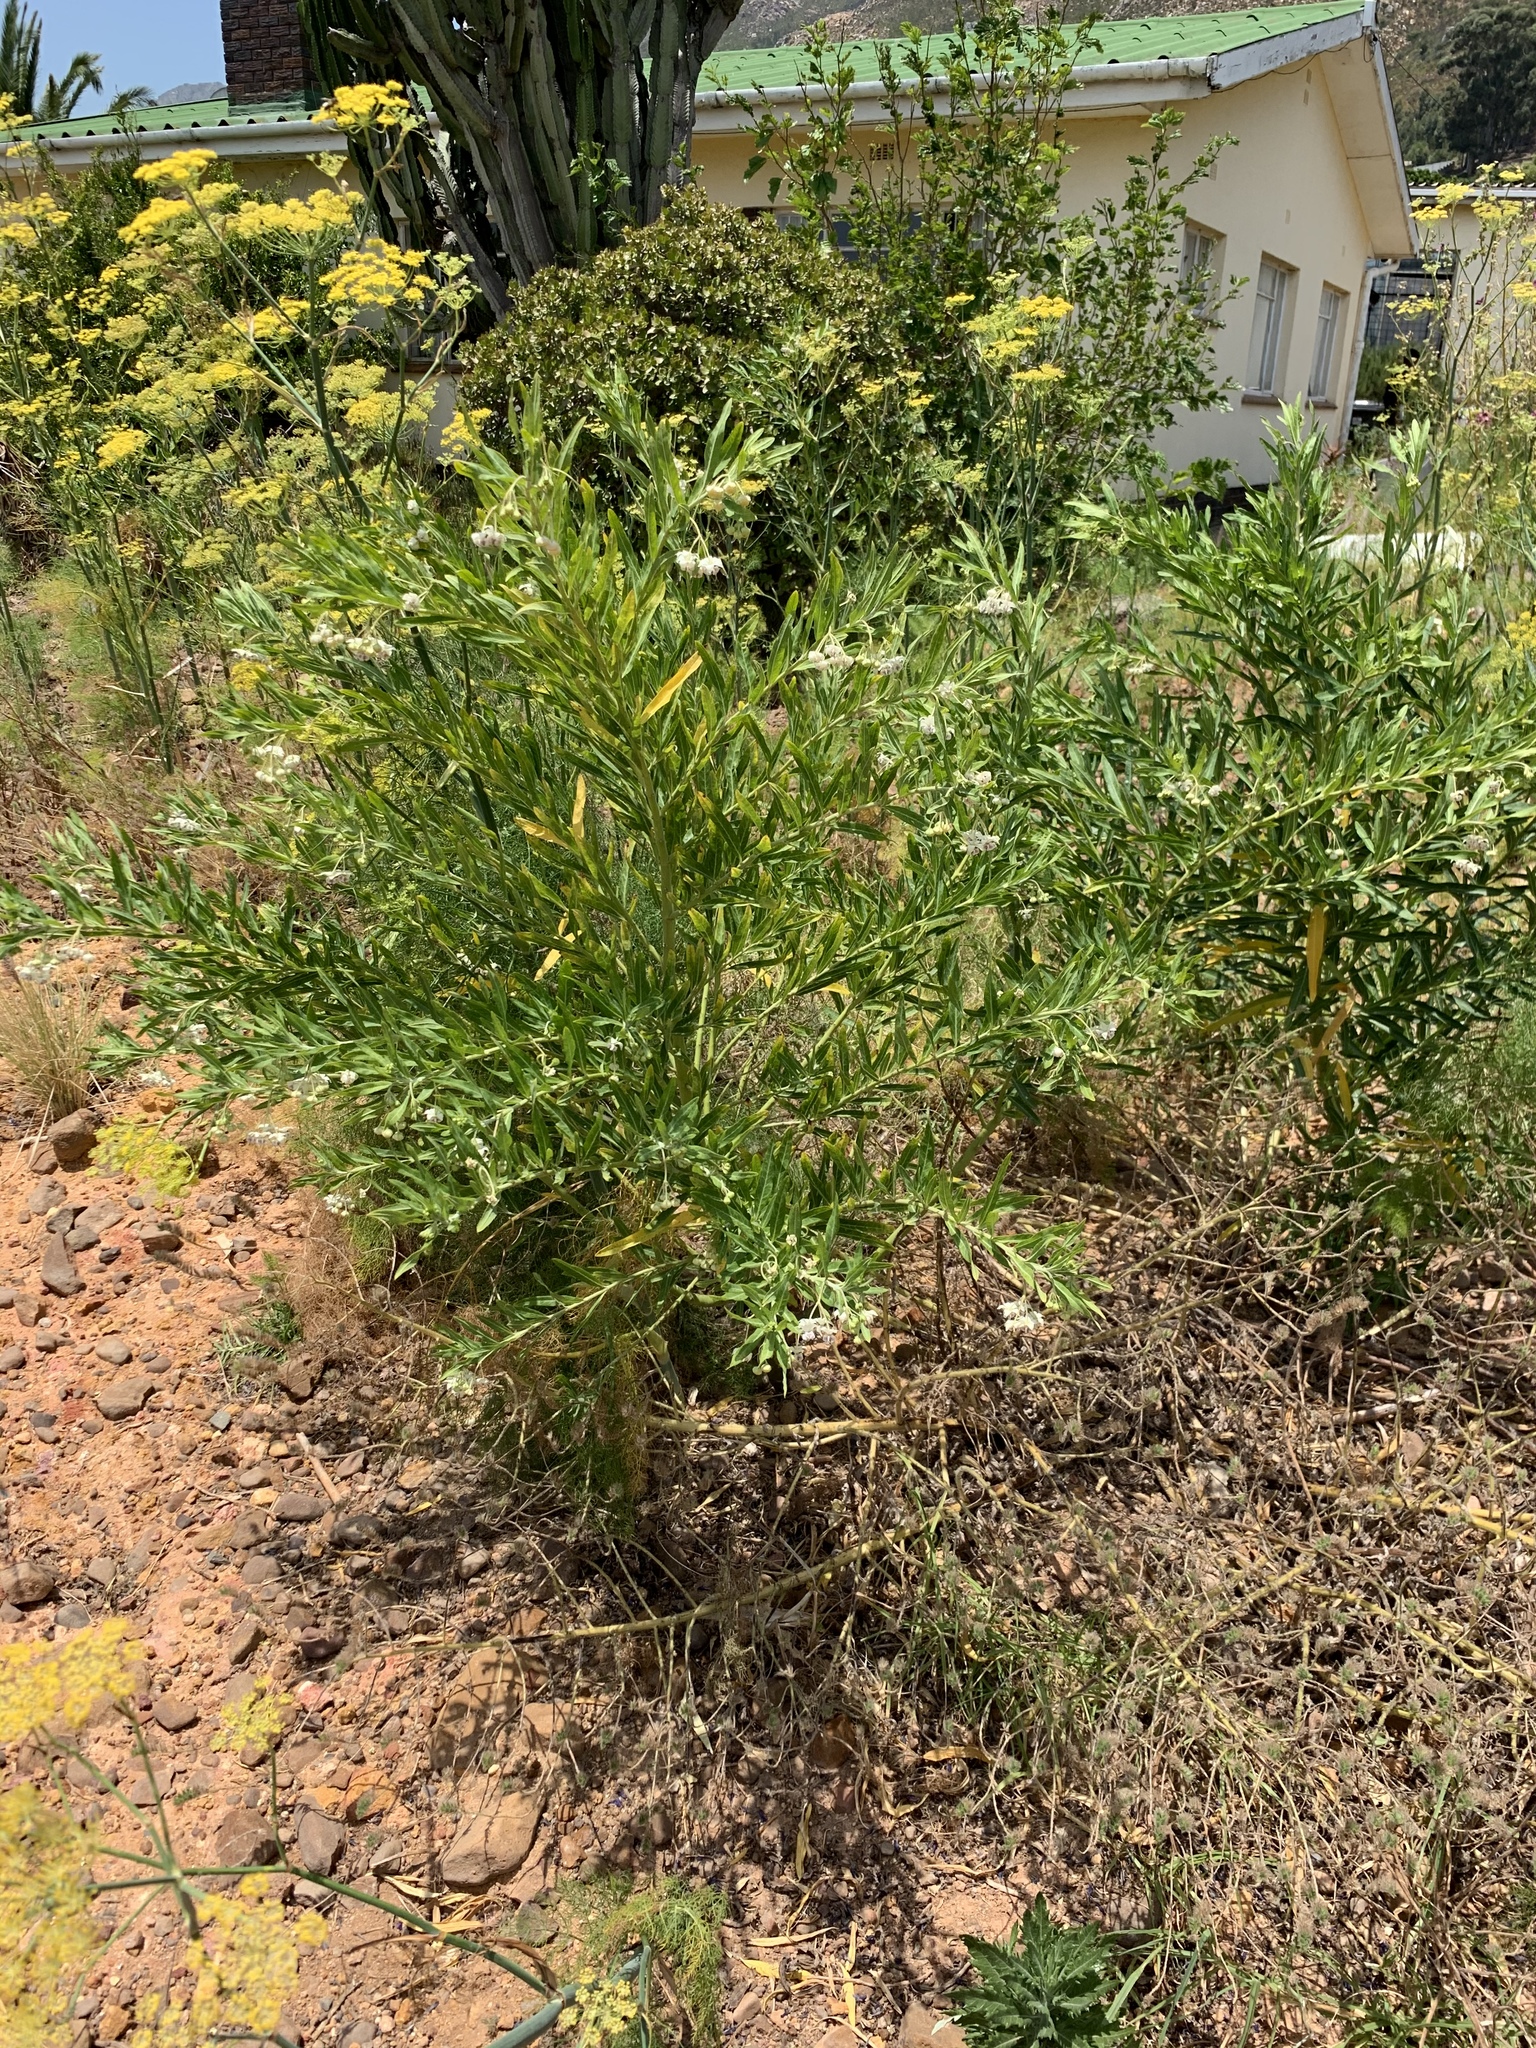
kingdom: Plantae
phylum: Tracheophyta
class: Magnoliopsida
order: Gentianales
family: Apocynaceae
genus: Gomphocarpus
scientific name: Gomphocarpus physocarpus
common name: Balloon cotton bush
